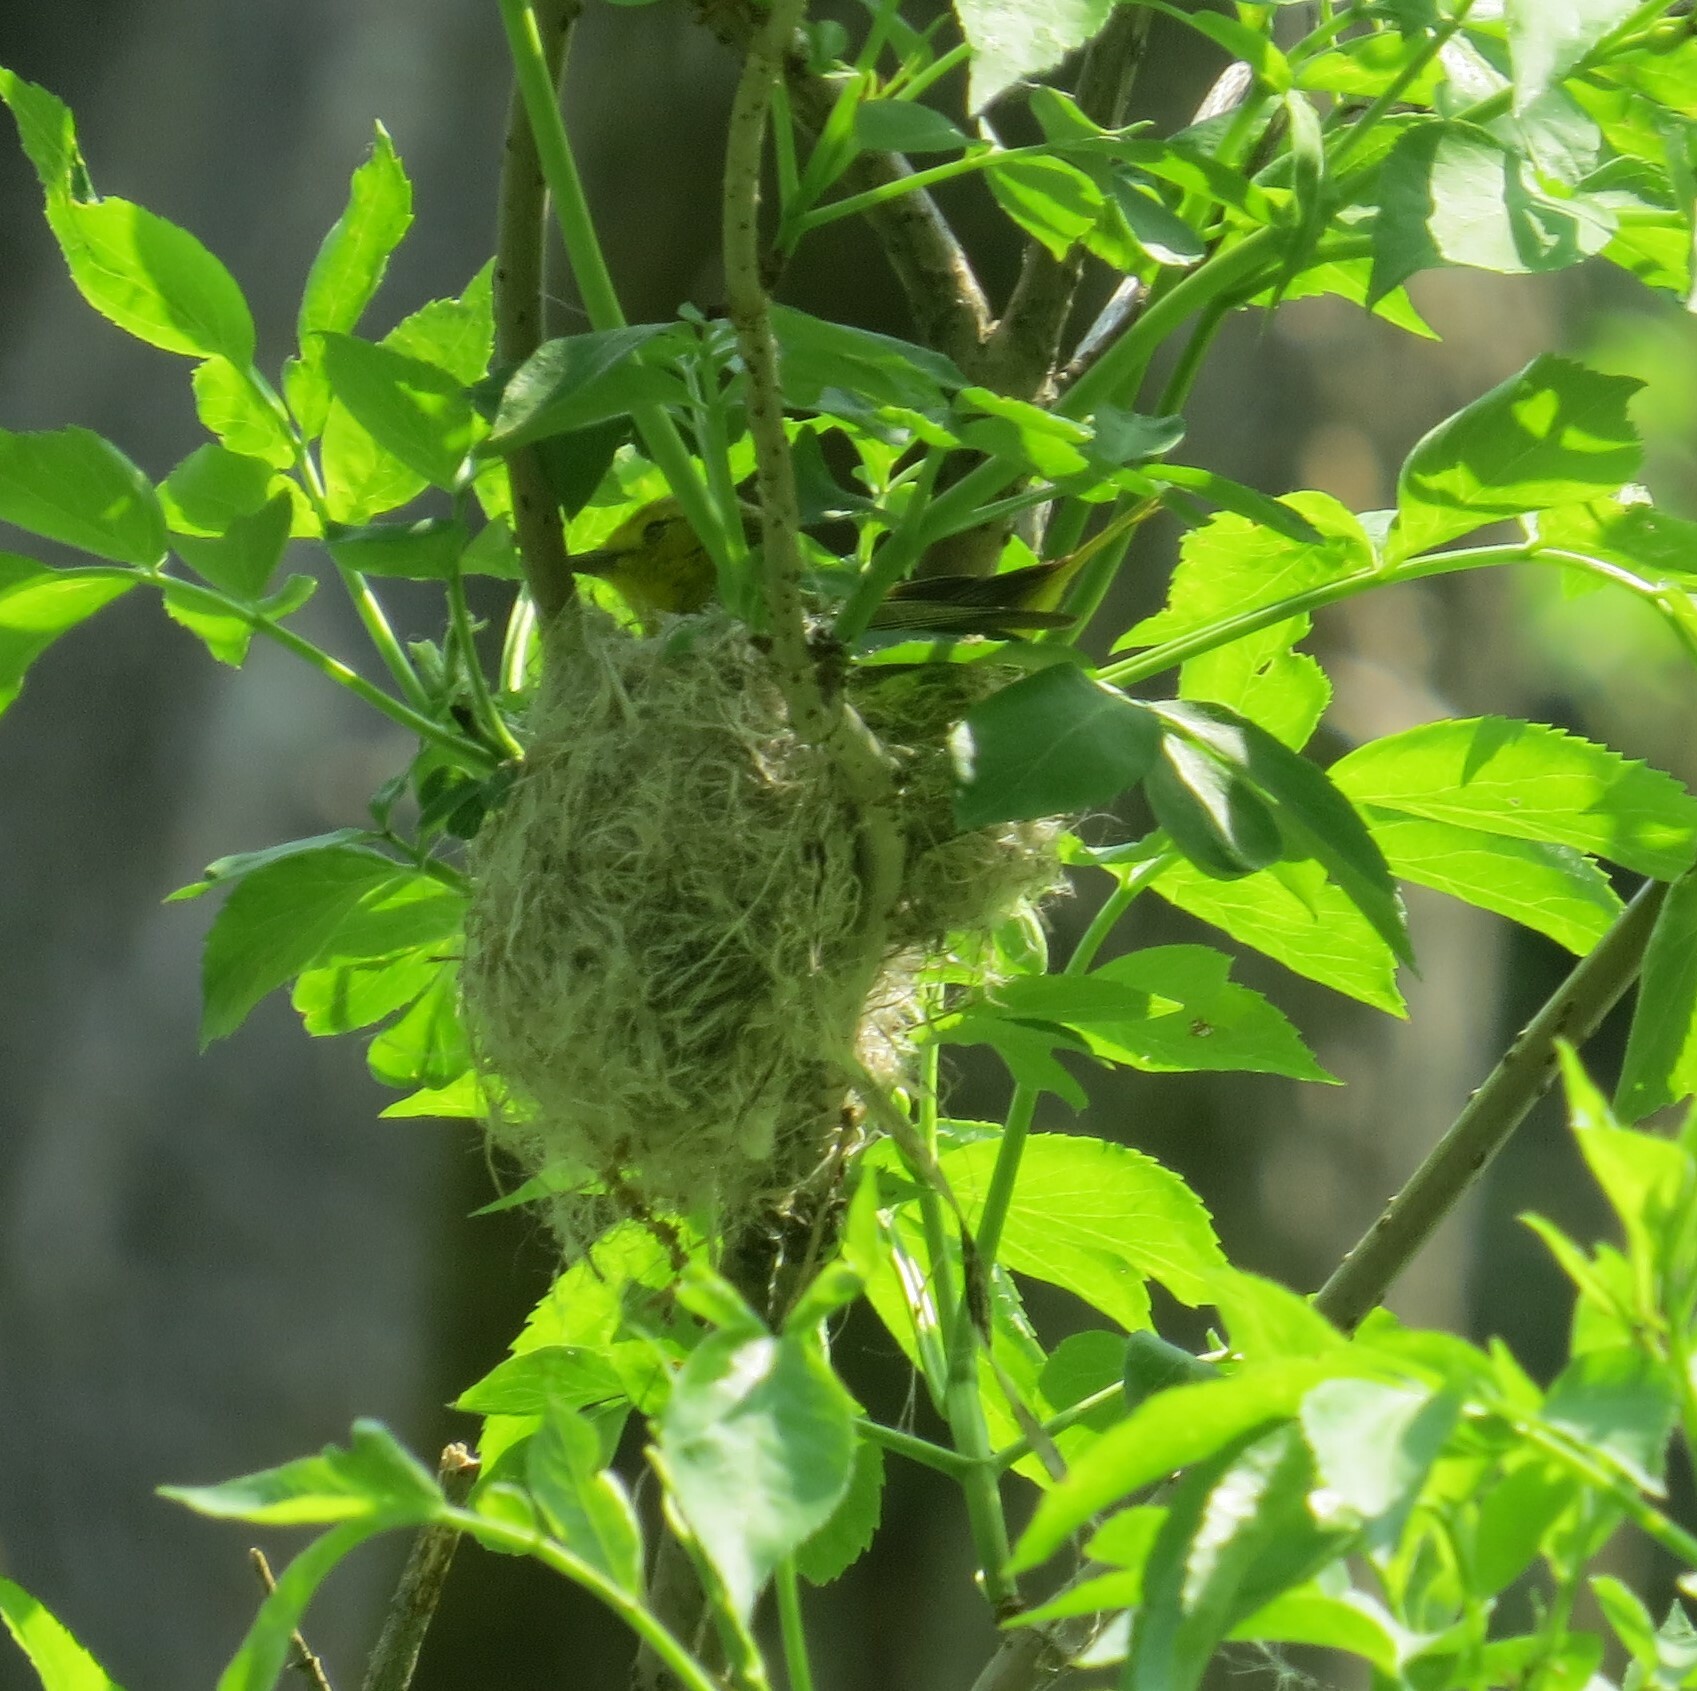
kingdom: Animalia
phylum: Chordata
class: Aves
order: Passeriformes
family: Parulidae
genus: Setophaga
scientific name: Setophaga petechia
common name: Yellow warbler
